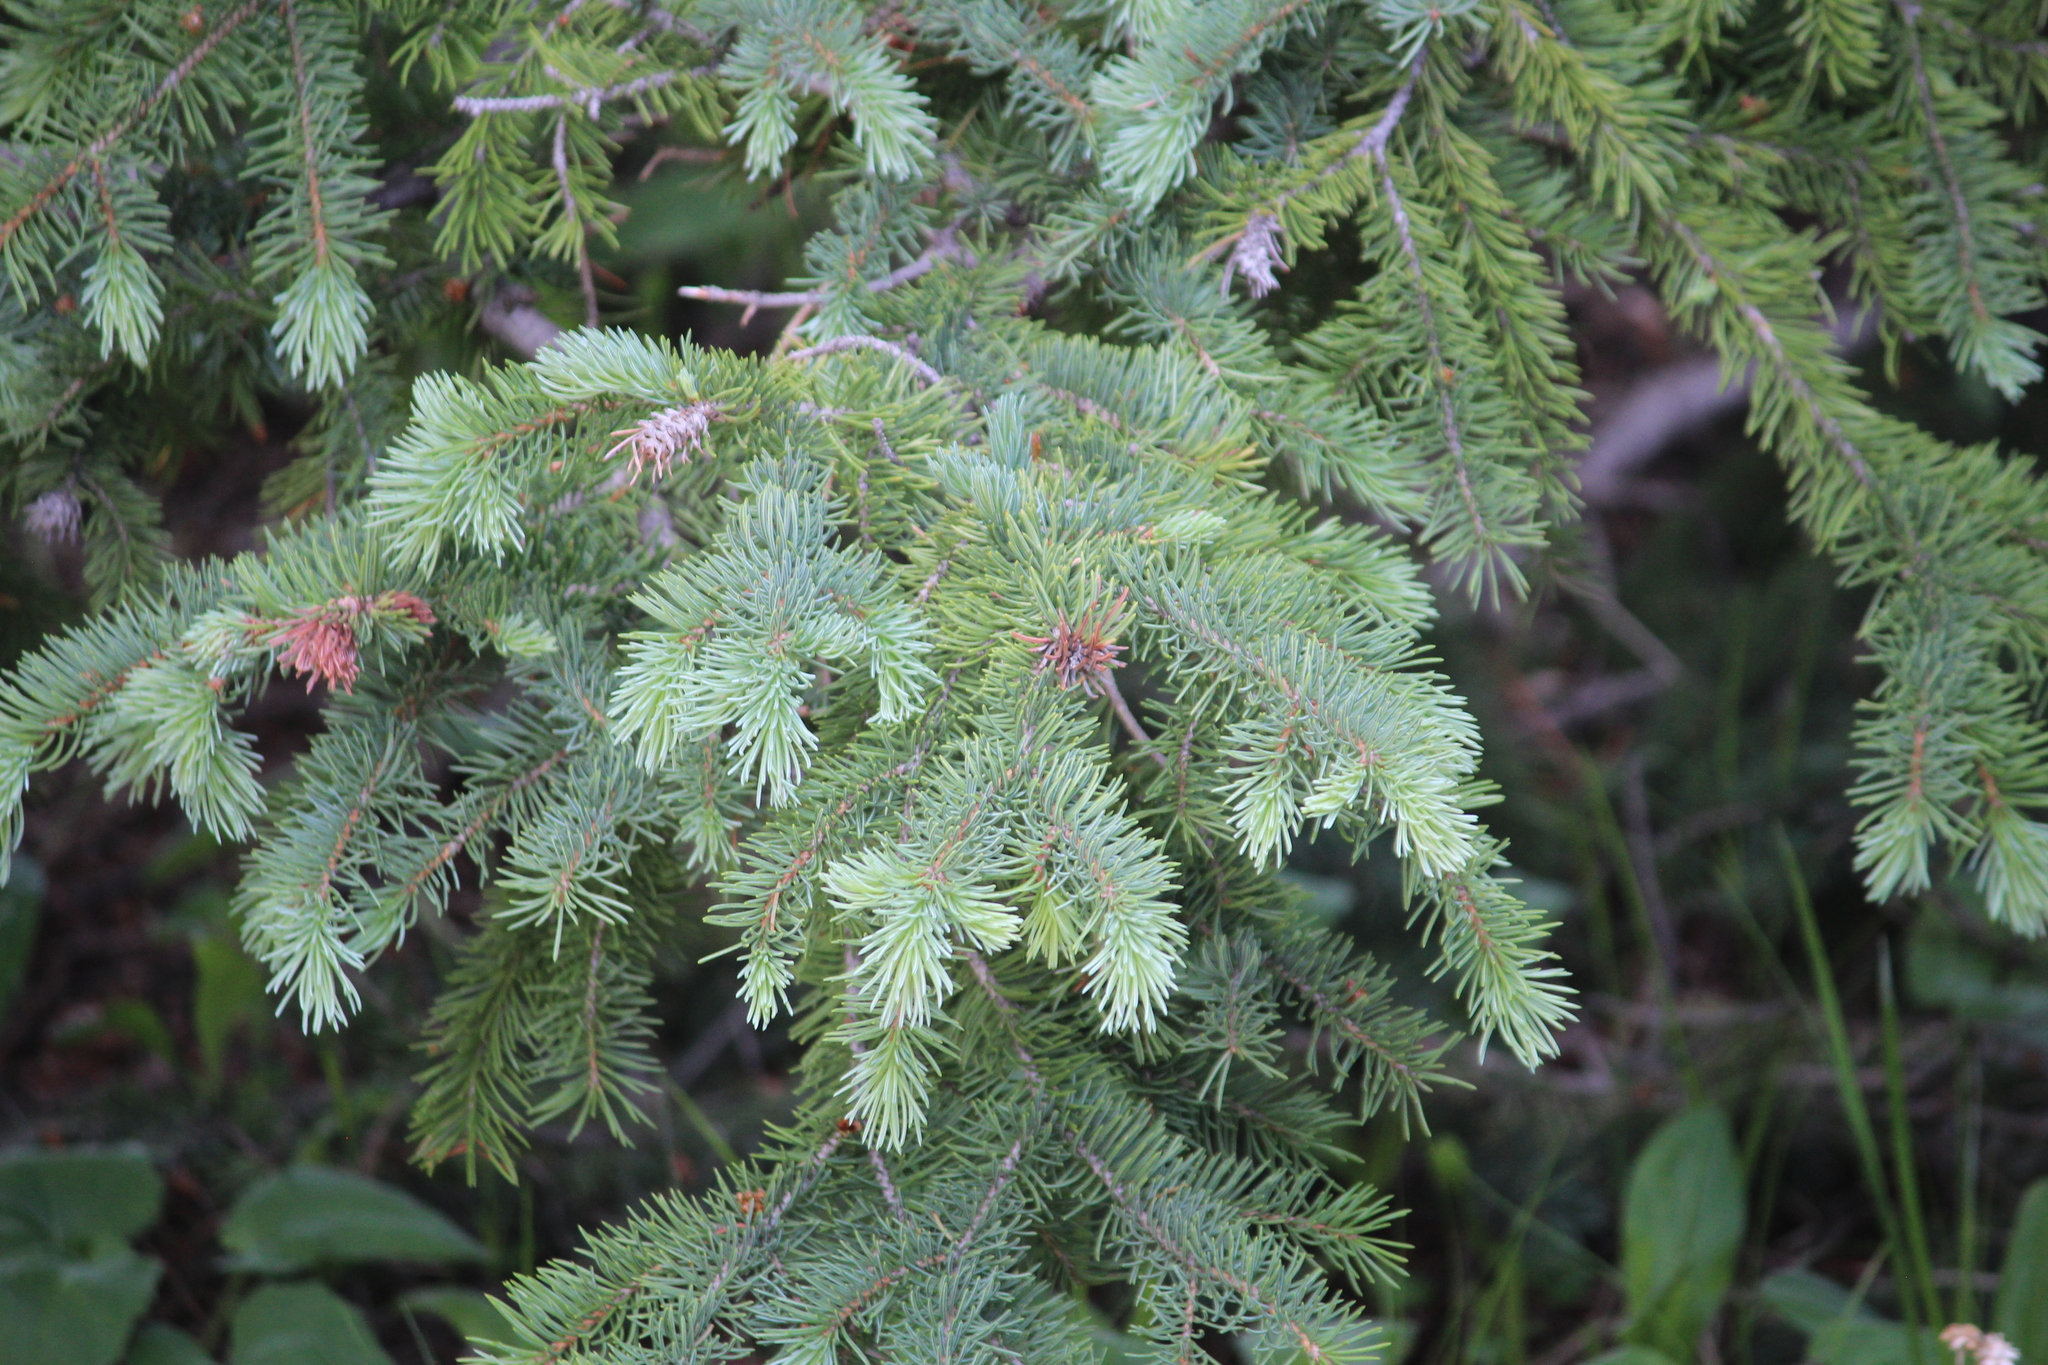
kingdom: Plantae
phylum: Tracheophyta
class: Pinopsida
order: Pinales
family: Pinaceae
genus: Picea
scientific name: Picea pungens
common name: Colorado spruce
